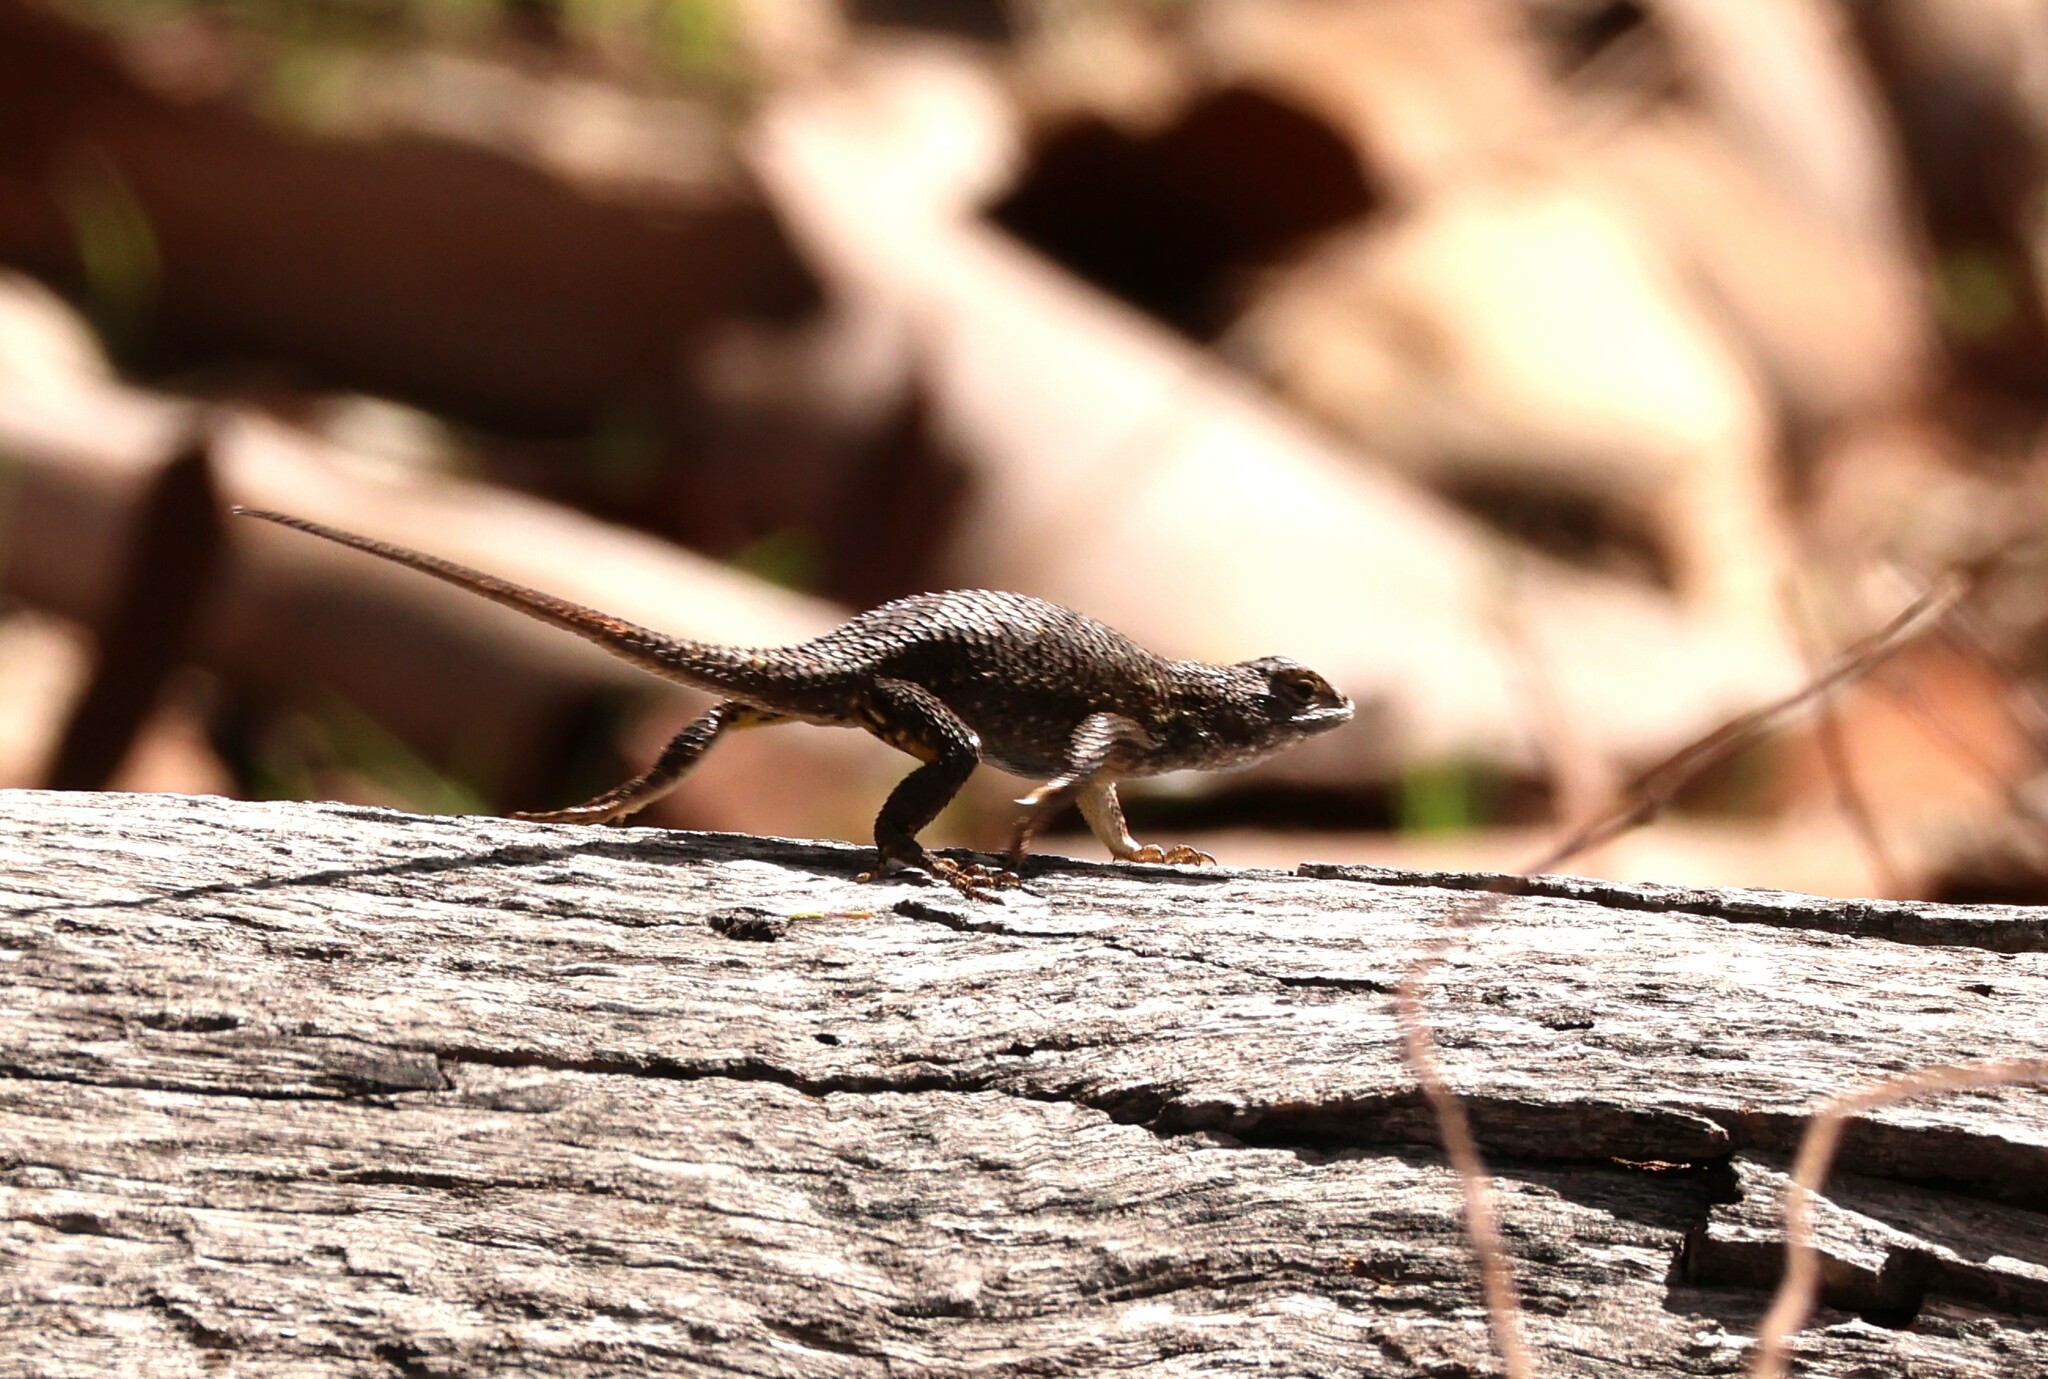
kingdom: Animalia
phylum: Chordata
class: Squamata
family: Phrynosomatidae
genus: Sceloporus
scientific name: Sceloporus occidentalis
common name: Western fence lizard
